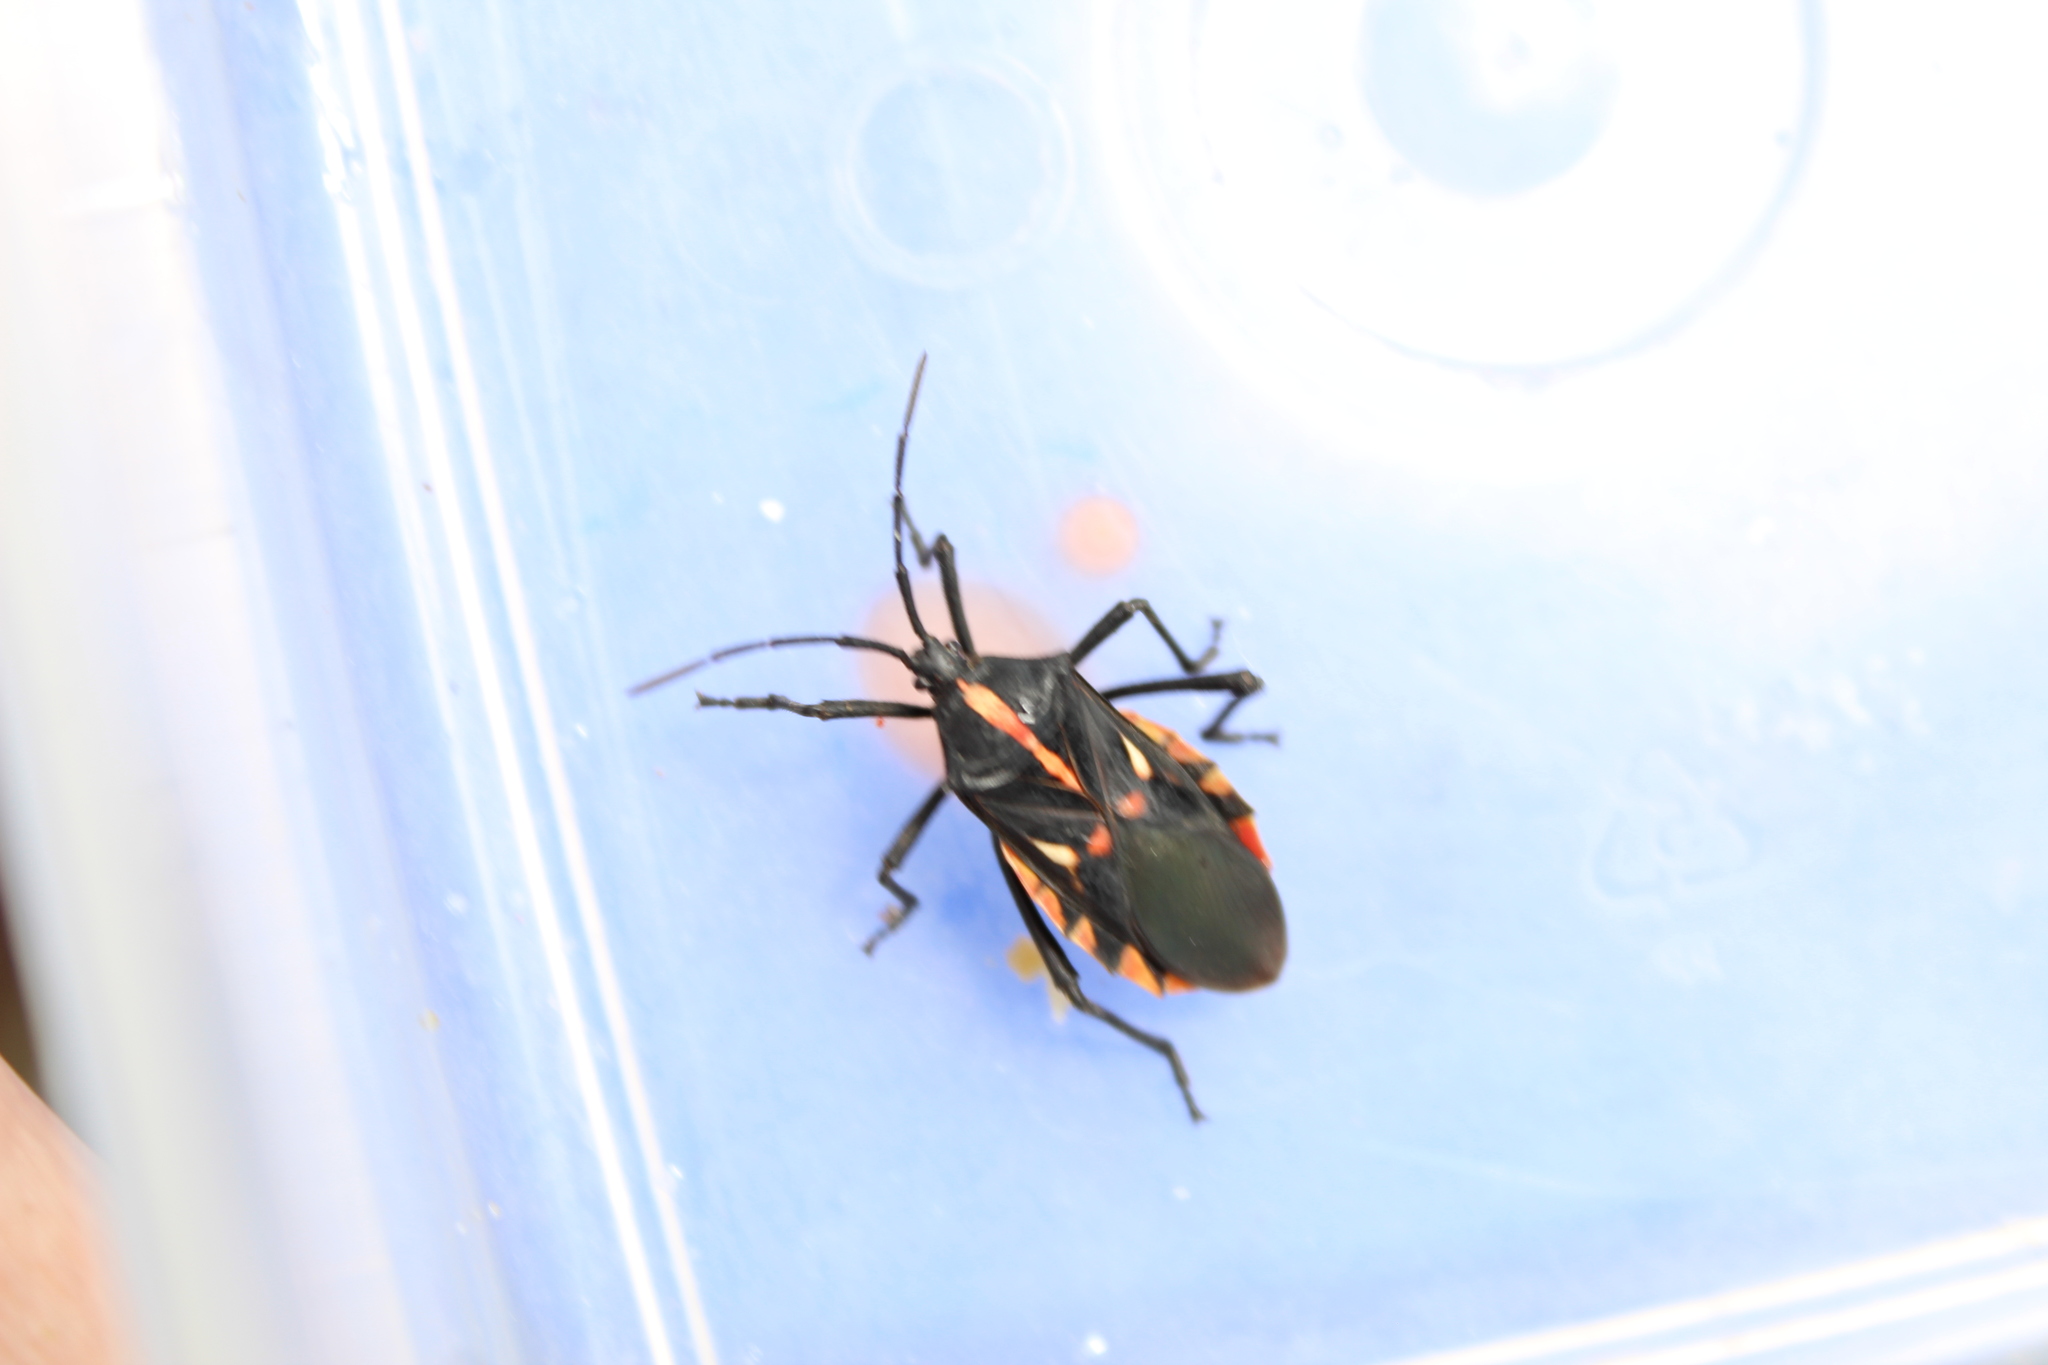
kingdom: Animalia
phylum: Arthropoda
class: Insecta
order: Hemiptera
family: Coreidae
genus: Curtius
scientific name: Curtius marginalis
